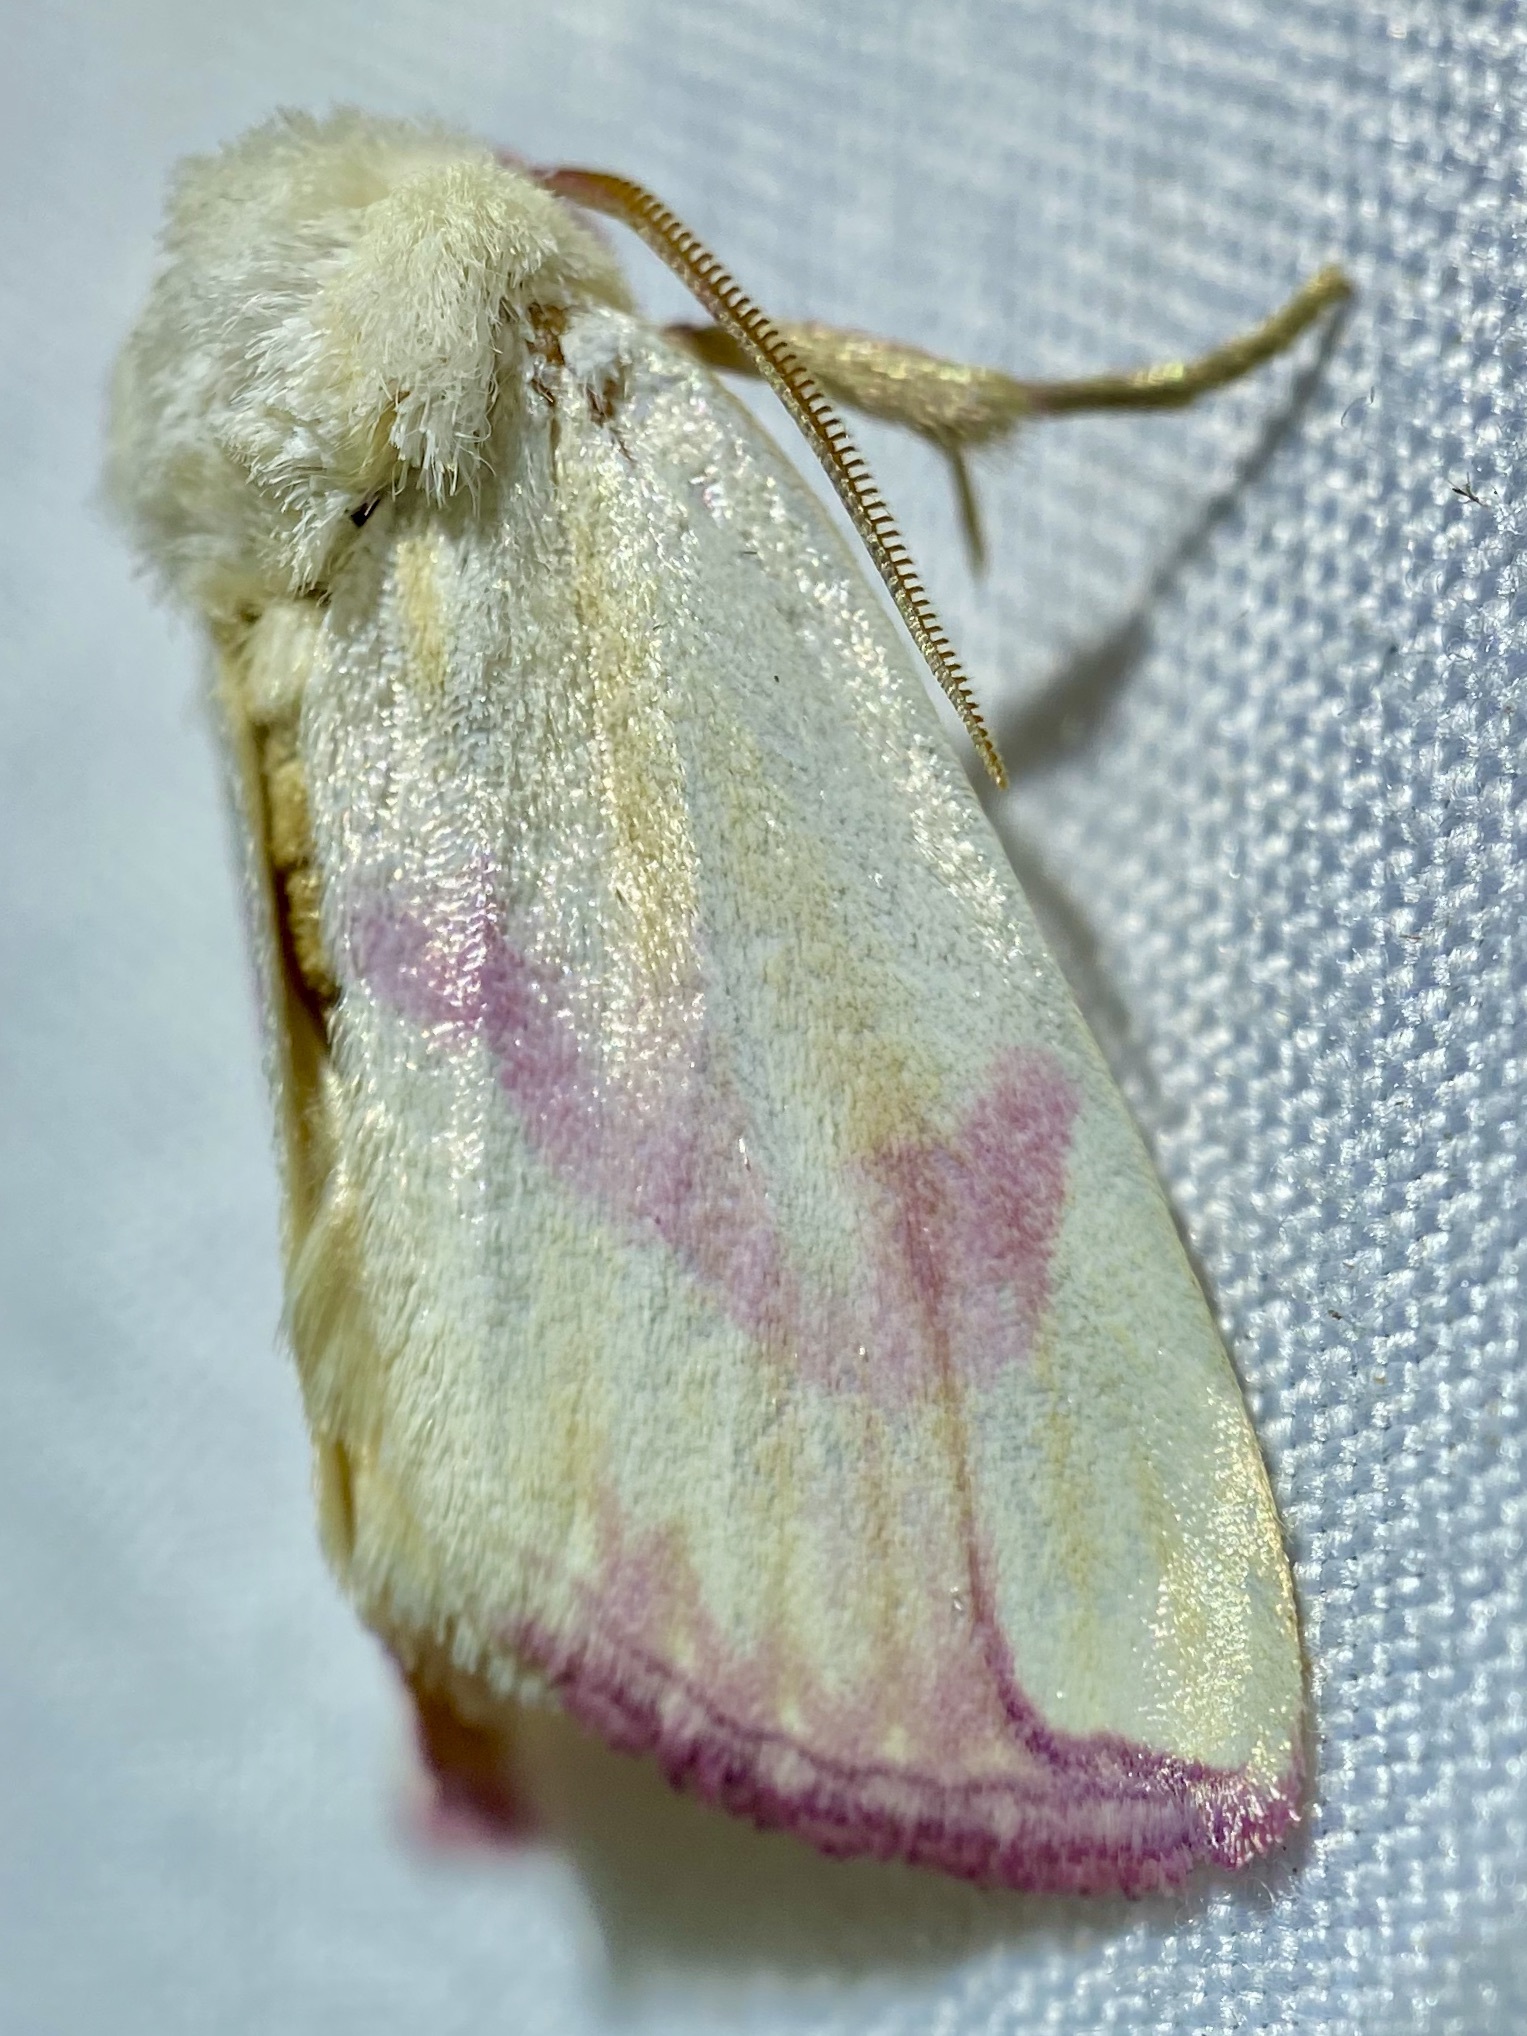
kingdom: Animalia
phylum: Arthropoda
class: Insecta
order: Lepidoptera
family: Noctuidae
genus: Thurberiphaga
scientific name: Thurberiphaga diffusa
